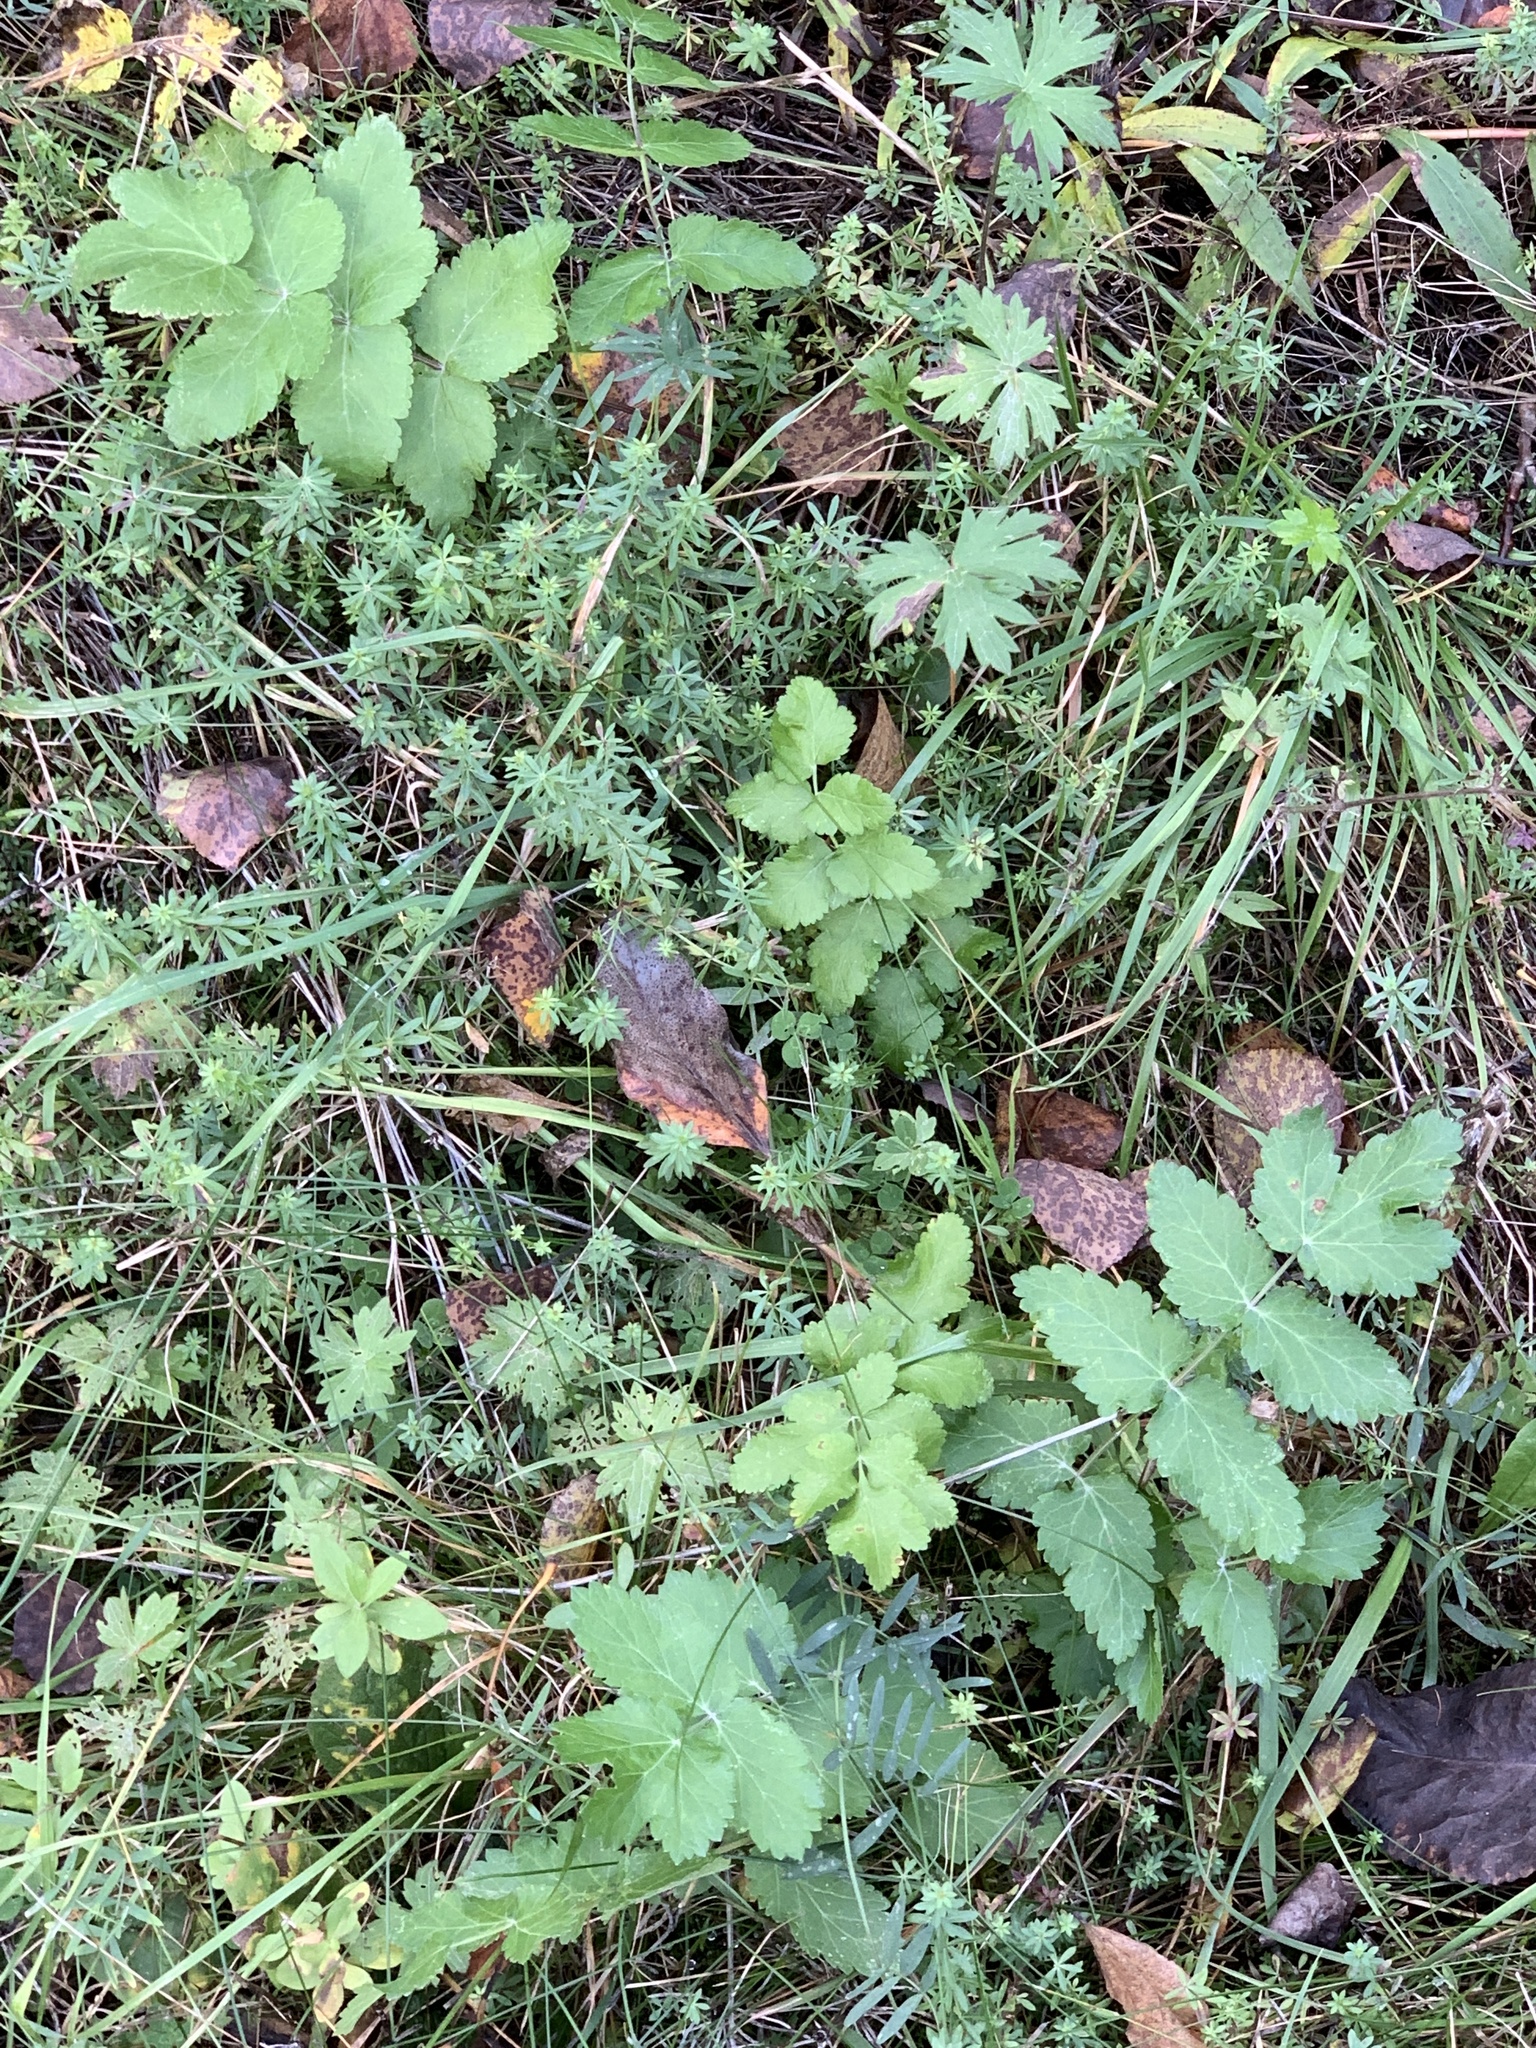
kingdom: Plantae
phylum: Tracheophyta
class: Magnoliopsida
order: Apiales
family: Apiaceae
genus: Pastinaca
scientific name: Pastinaca sativa
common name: Wild parsnip
